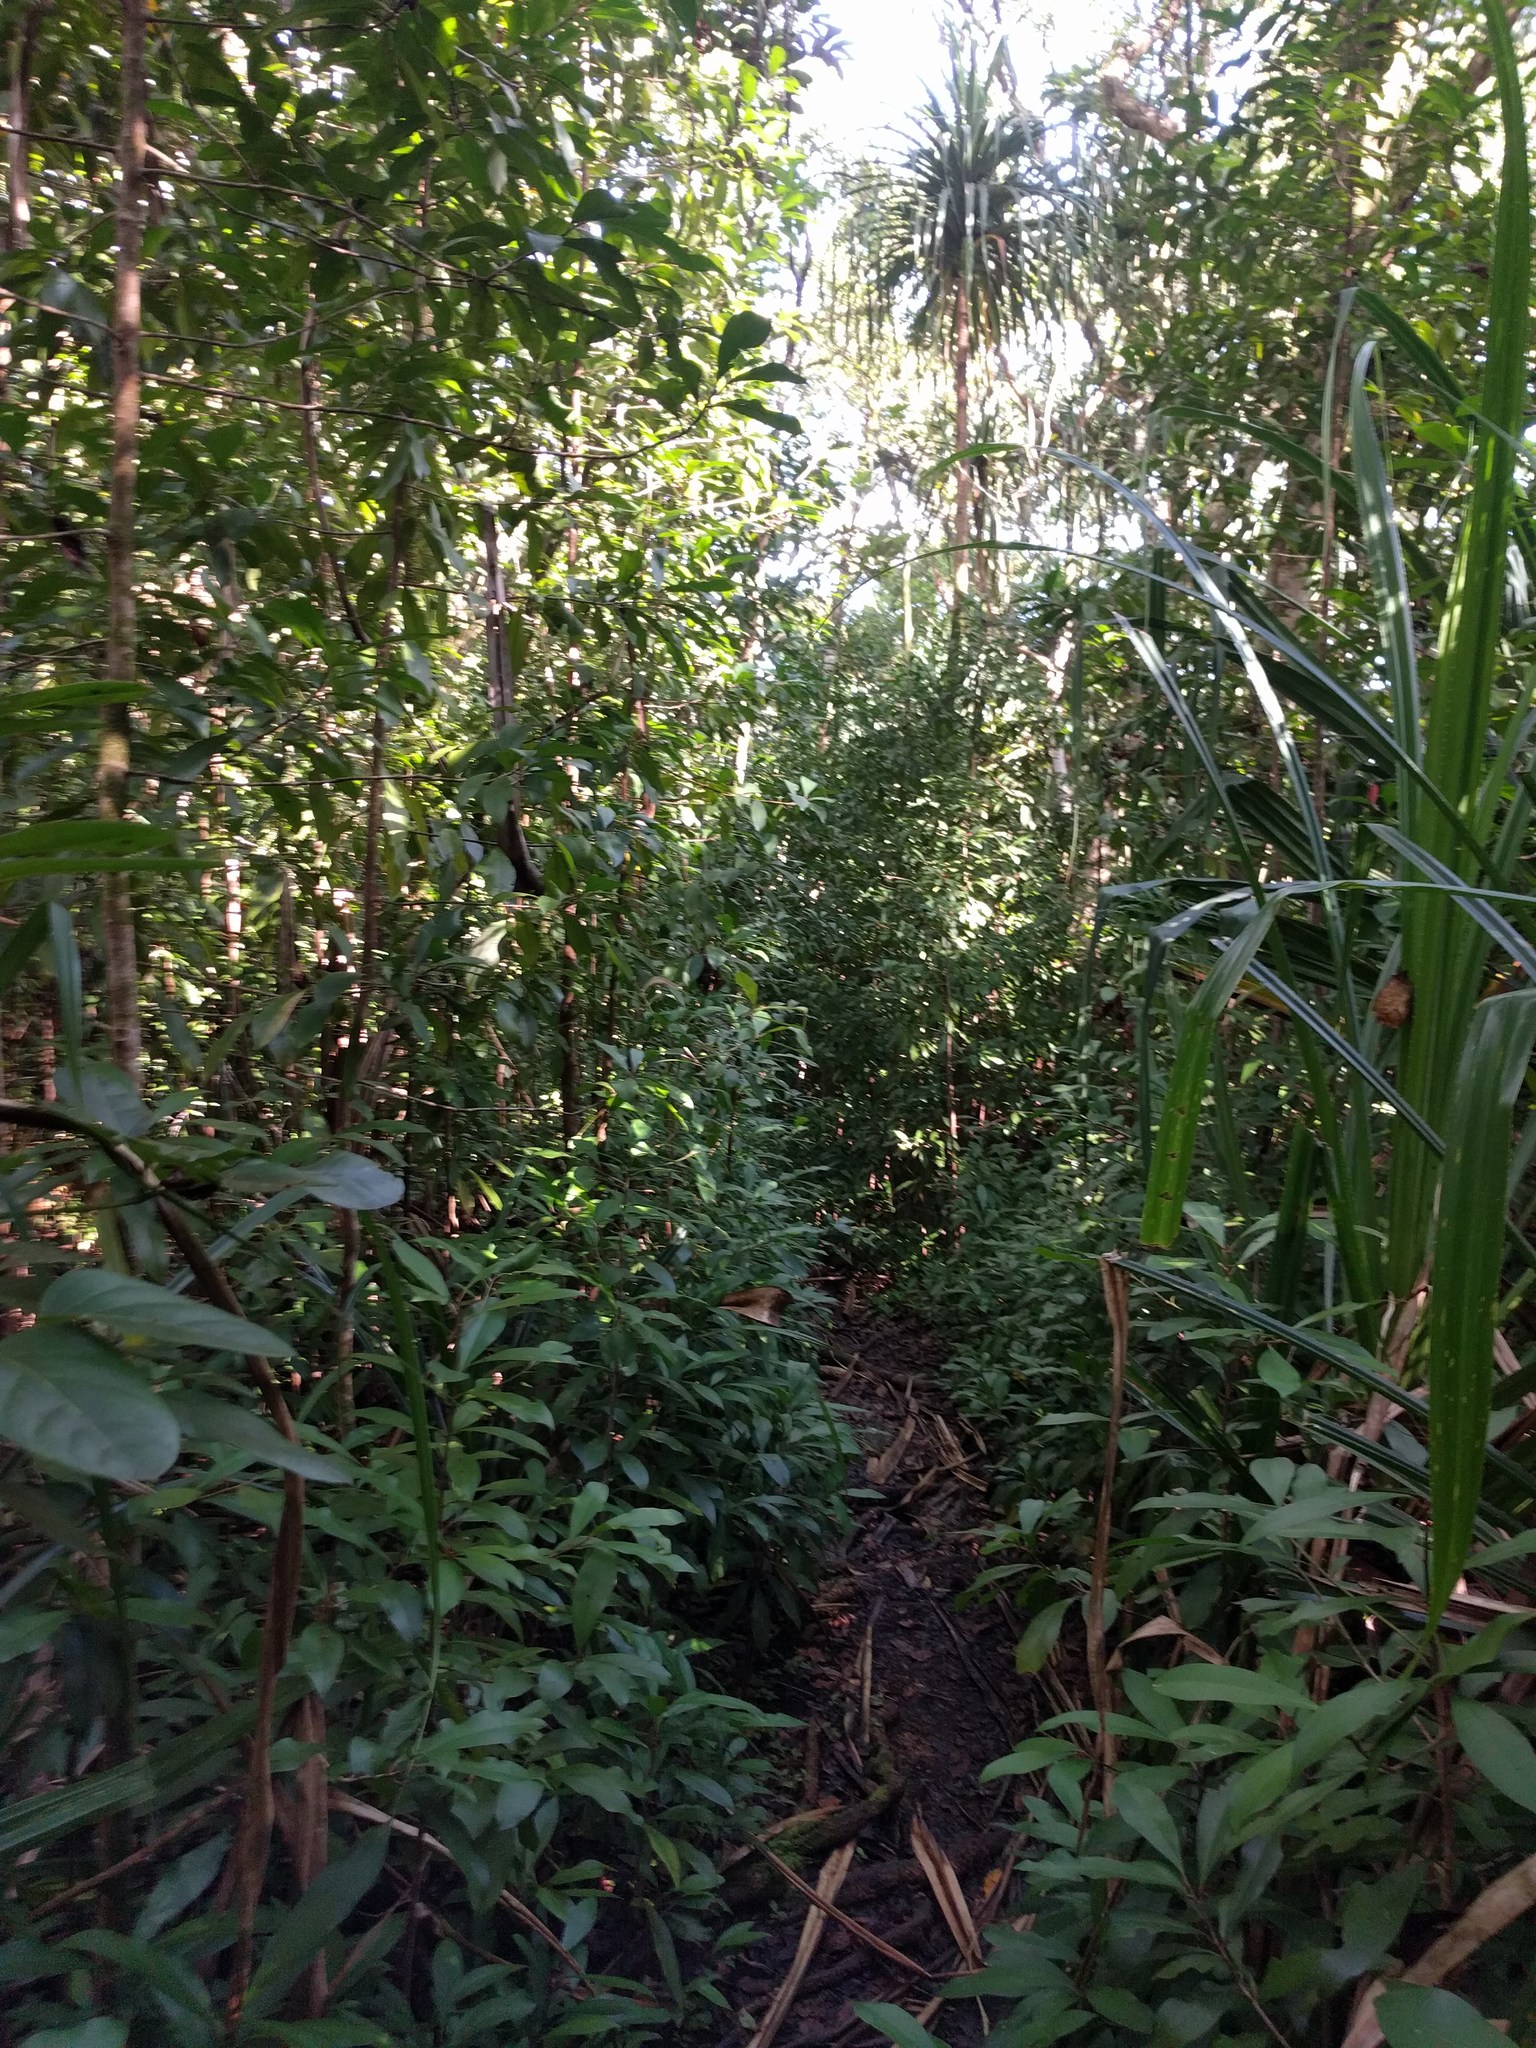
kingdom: Plantae
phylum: Tracheophyta
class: Magnoliopsida
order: Ericales
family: Primulaceae
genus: Ardisia
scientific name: Ardisia elliptica
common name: Shoebutton
